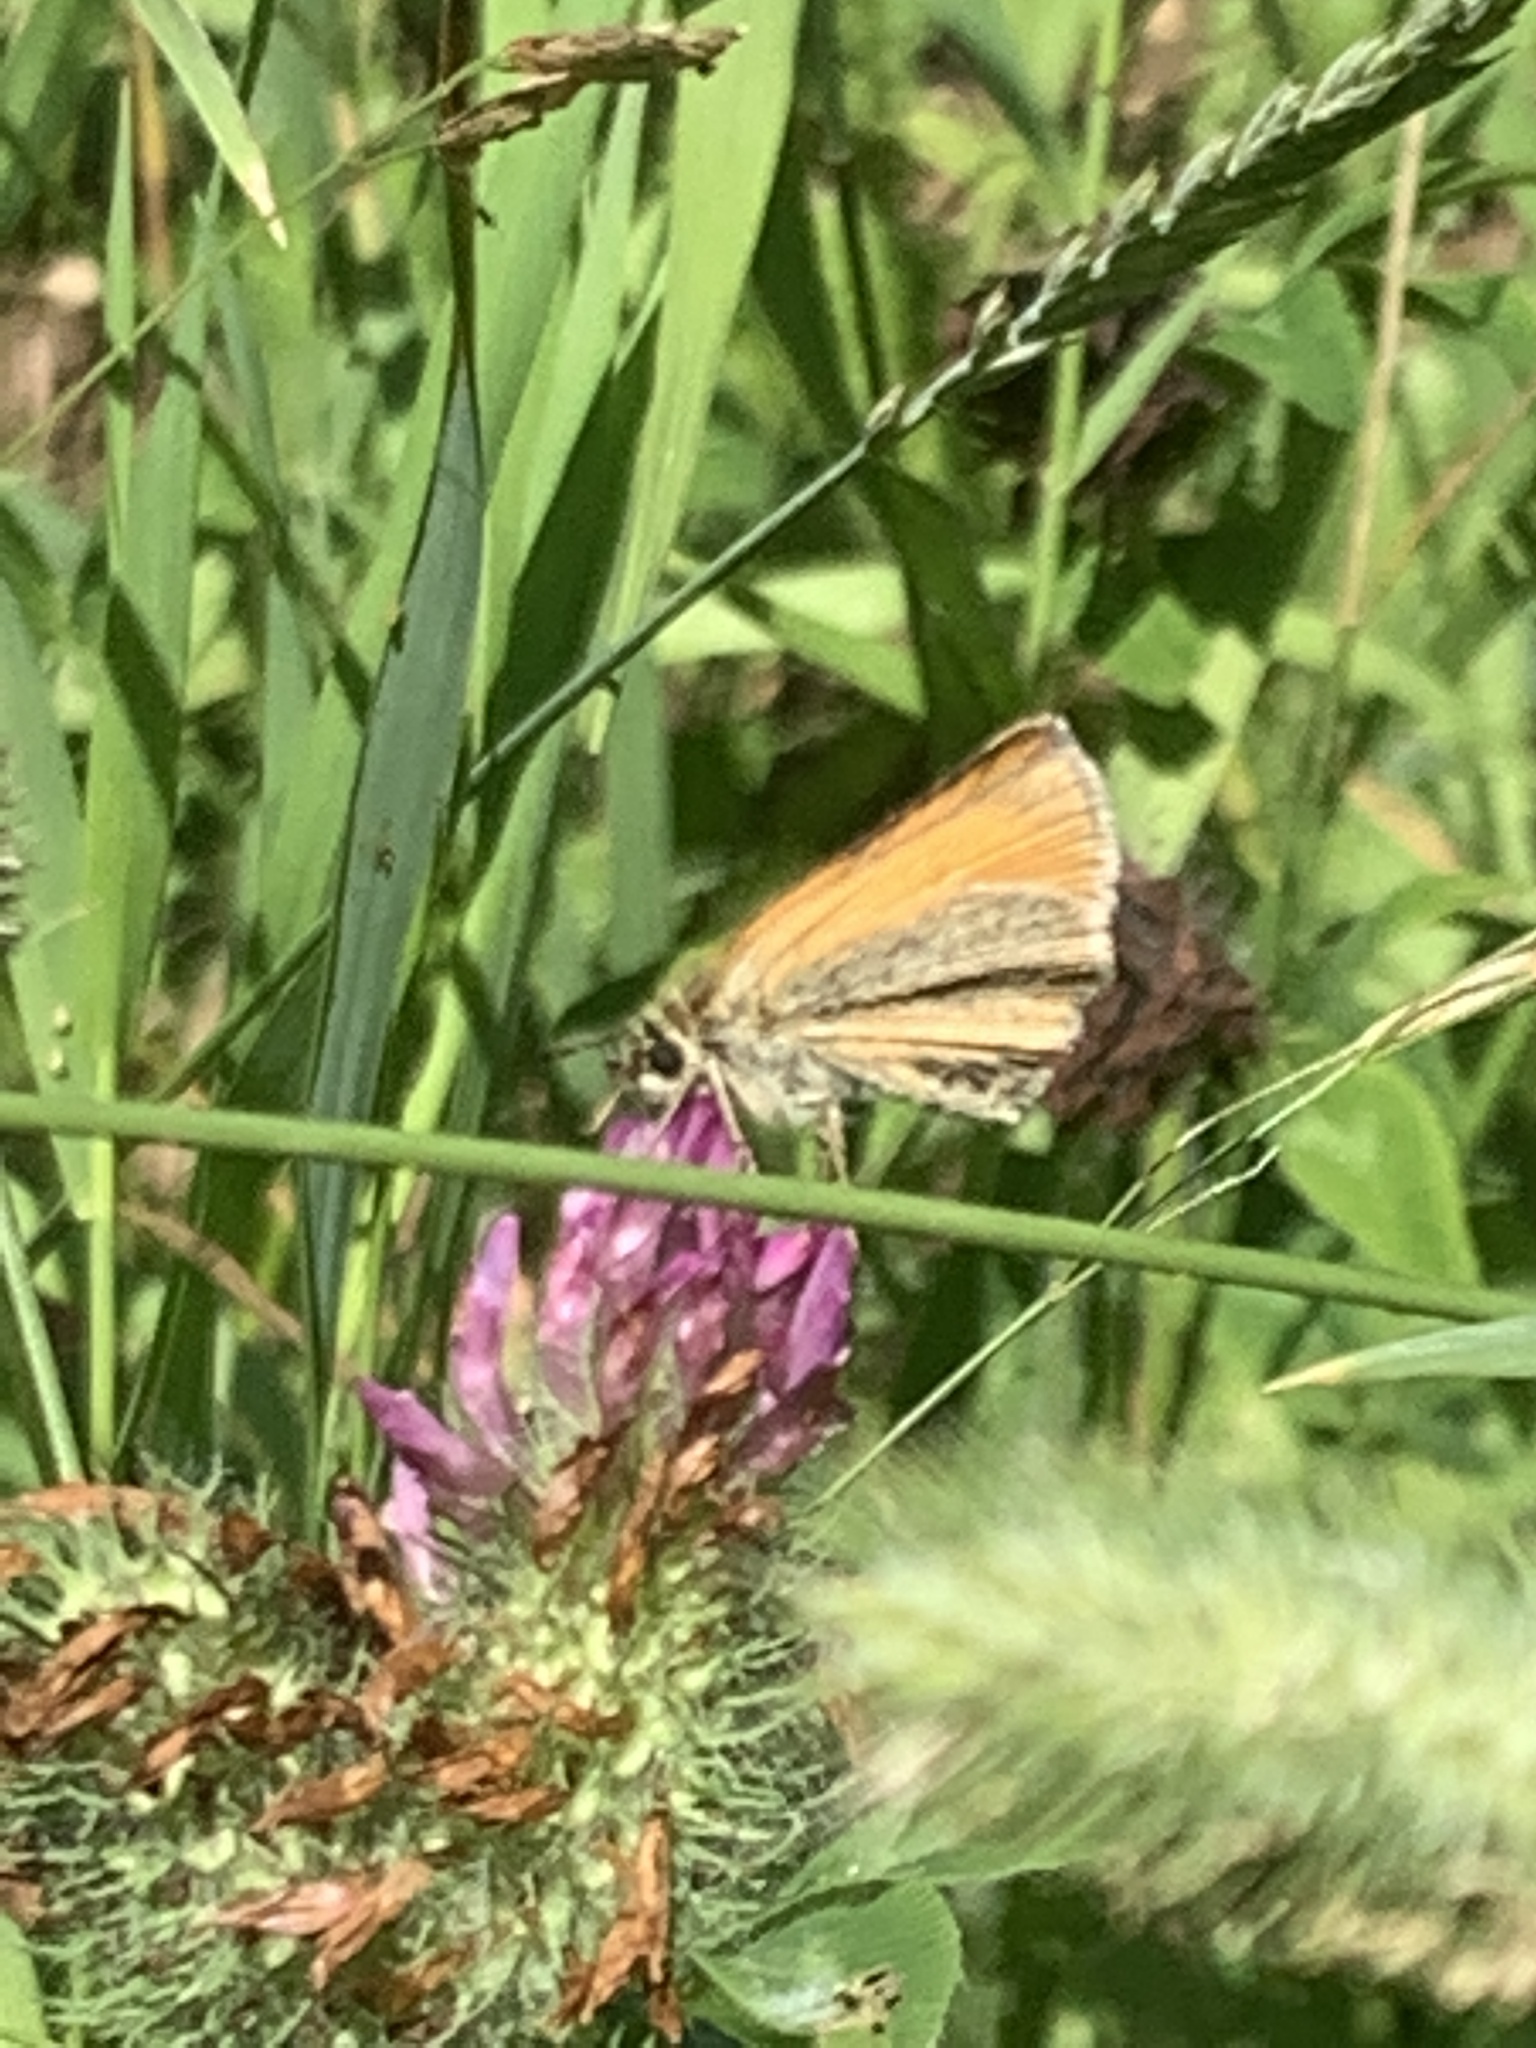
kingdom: Animalia
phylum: Arthropoda
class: Insecta
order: Lepidoptera
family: Hesperiidae
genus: Thymelicus
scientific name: Thymelicus lineola
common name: Essex skipper
